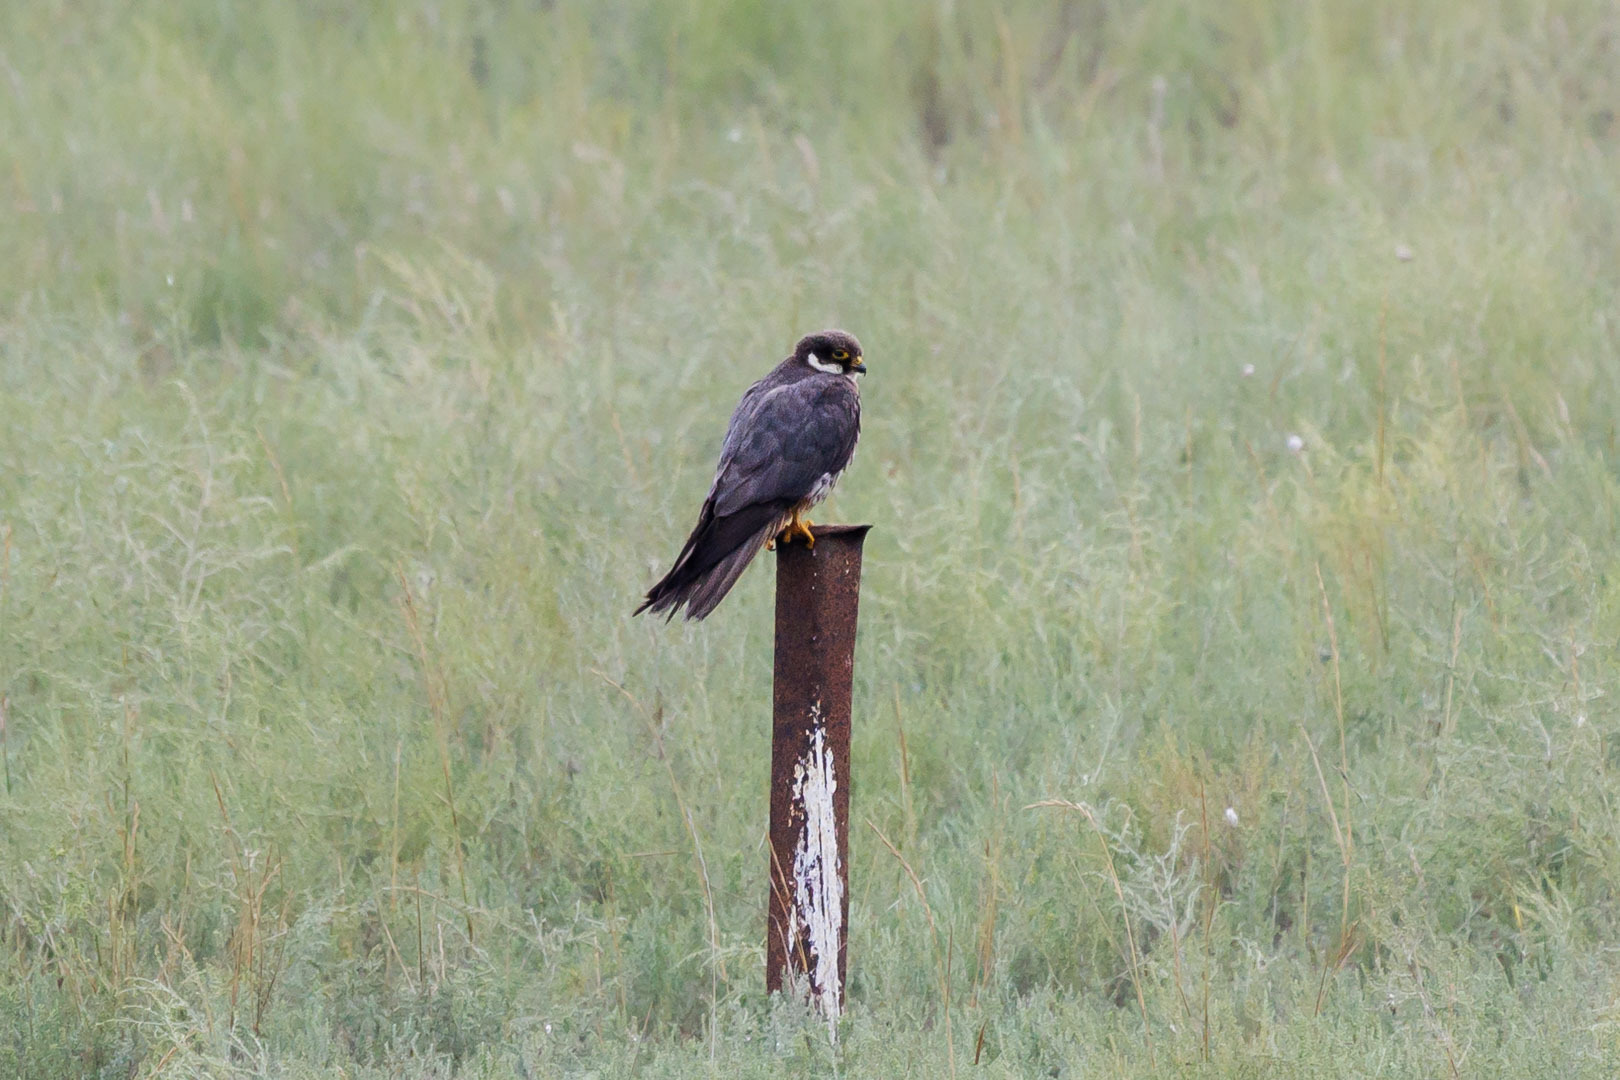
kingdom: Animalia
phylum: Chordata
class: Aves
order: Falconiformes
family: Falconidae
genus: Falco
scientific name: Falco subbuteo
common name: Eurasian hobby
